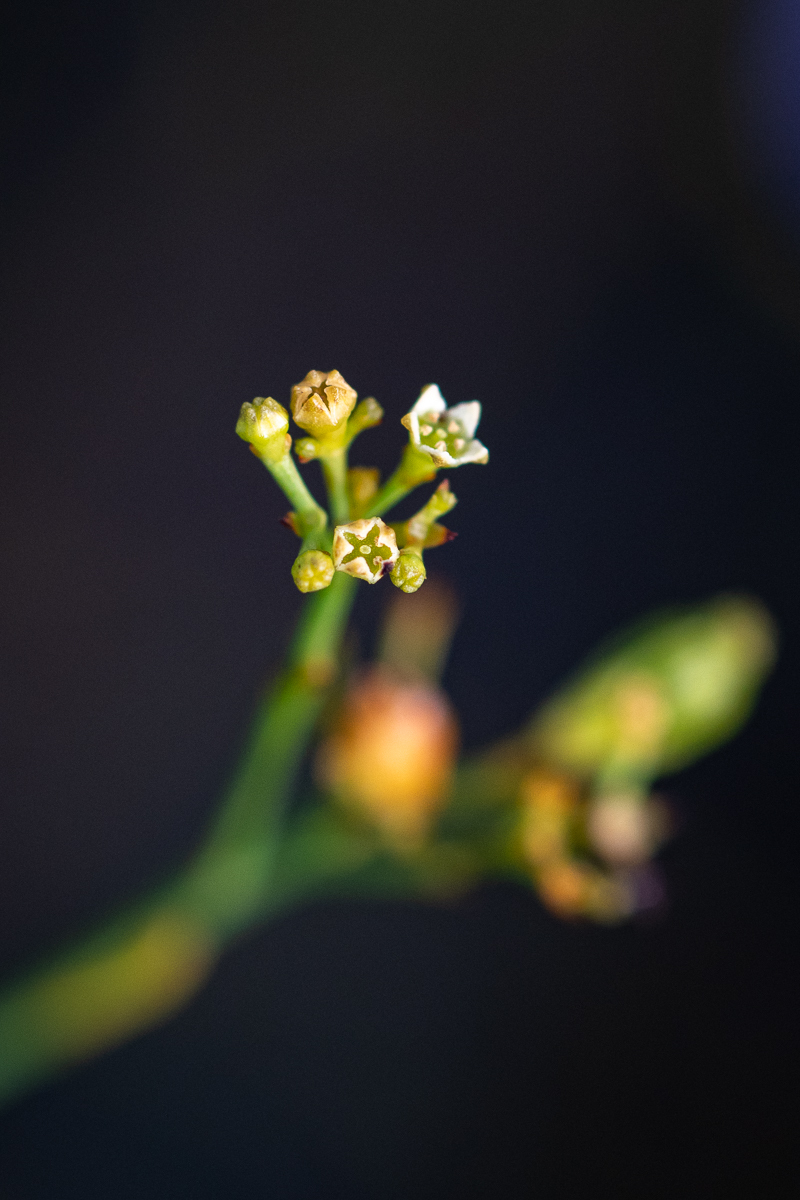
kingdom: Plantae
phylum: Tracheophyta
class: Magnoliopsida
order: Santalales
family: Thesiaceae
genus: Thesium
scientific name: Thesium virgatum
